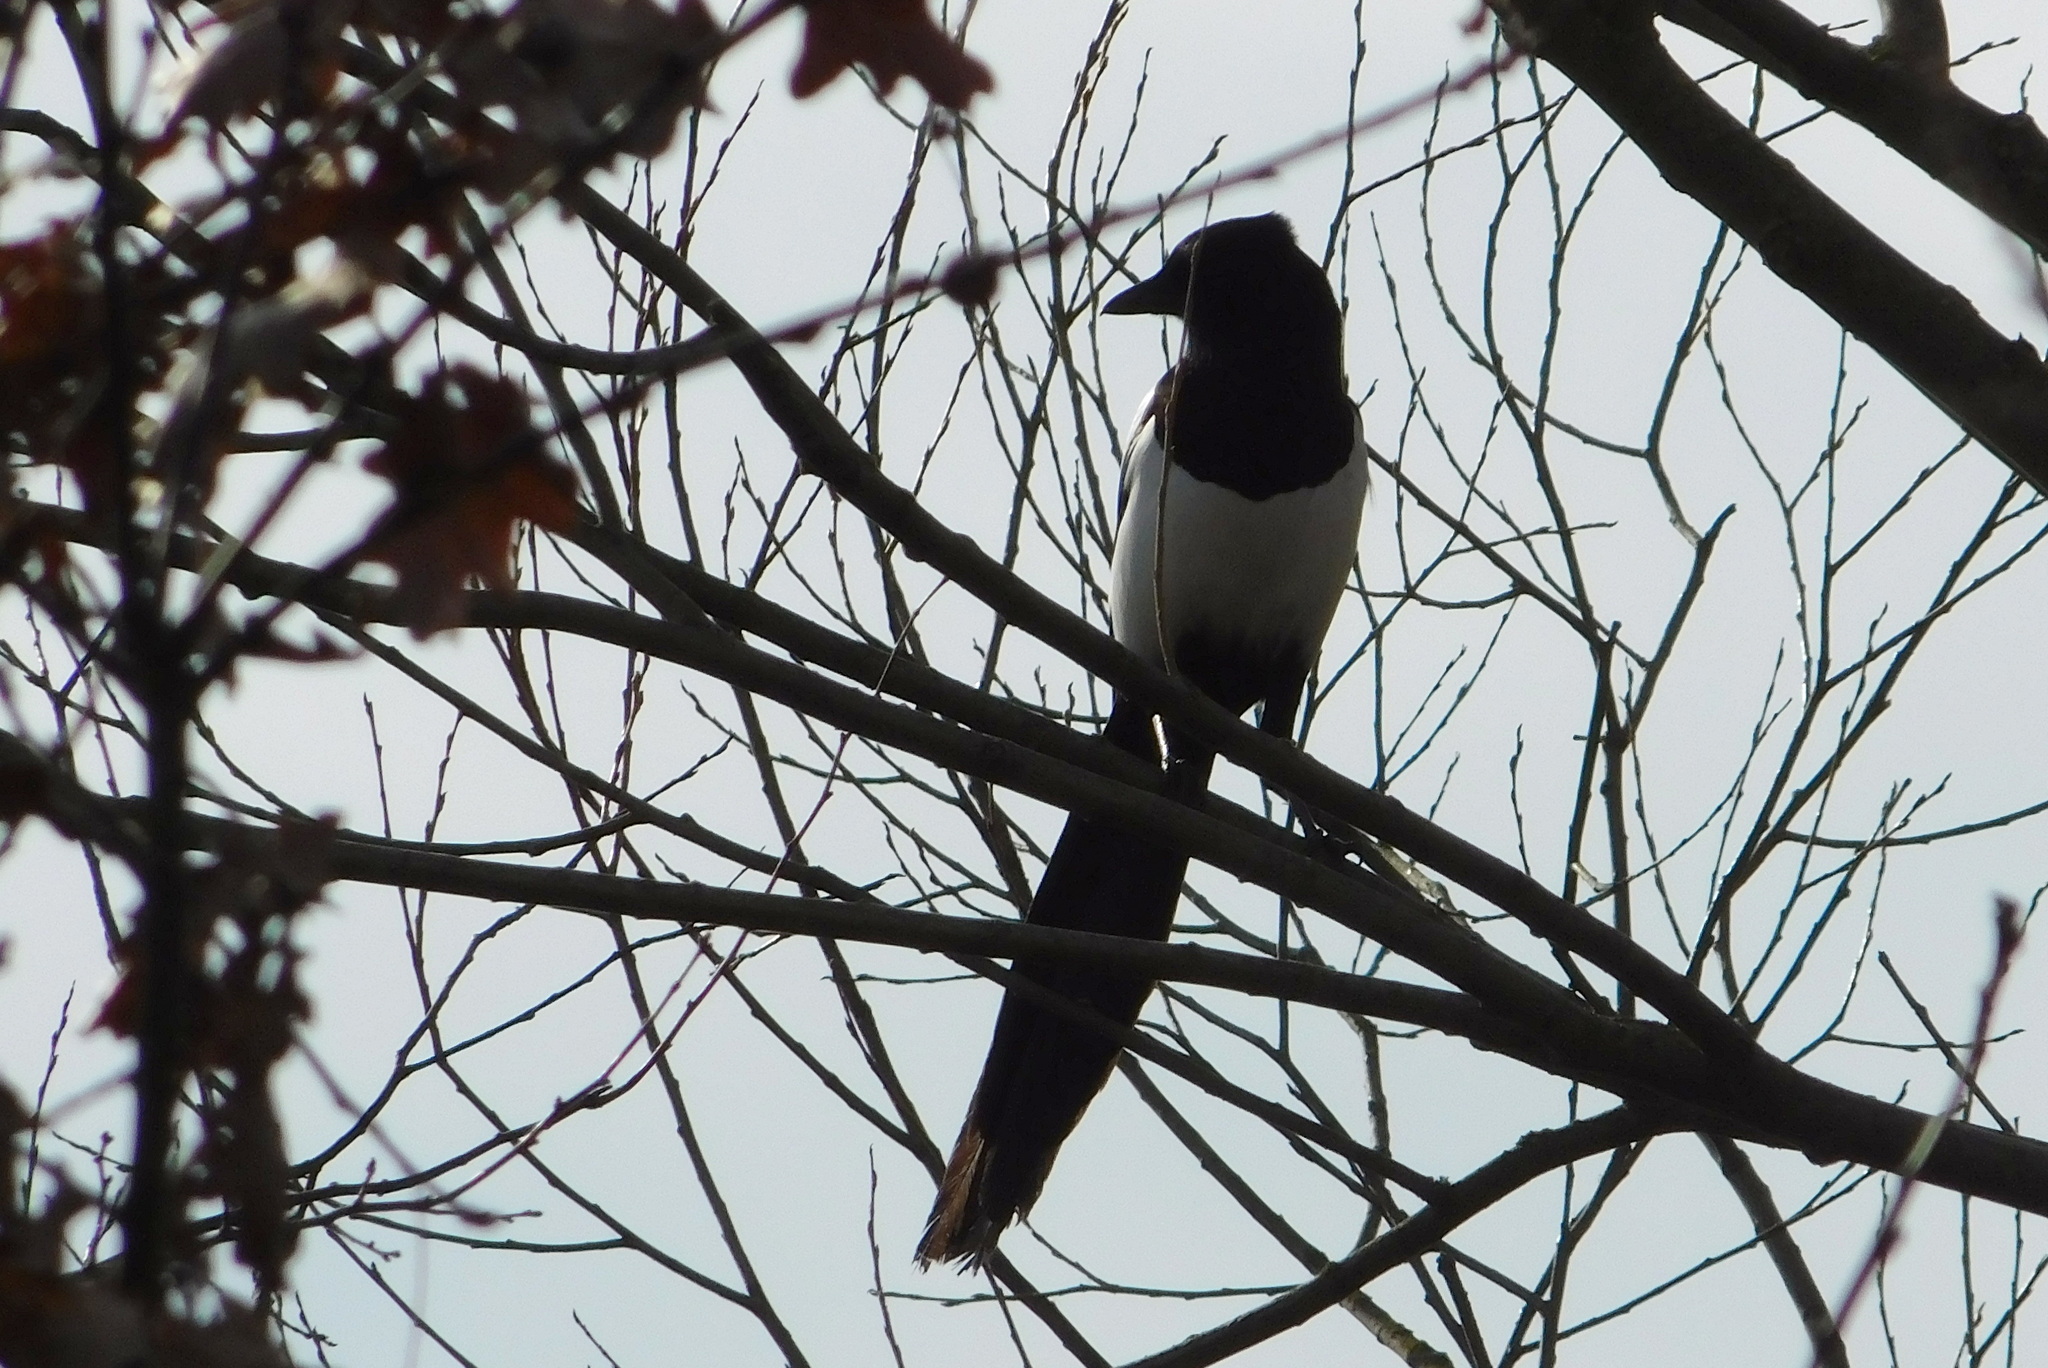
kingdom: Animalia
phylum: Chordata
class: Aves
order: Passeriformes
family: Corvidae
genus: Pica
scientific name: Pica pica
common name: Eurasian magpie
